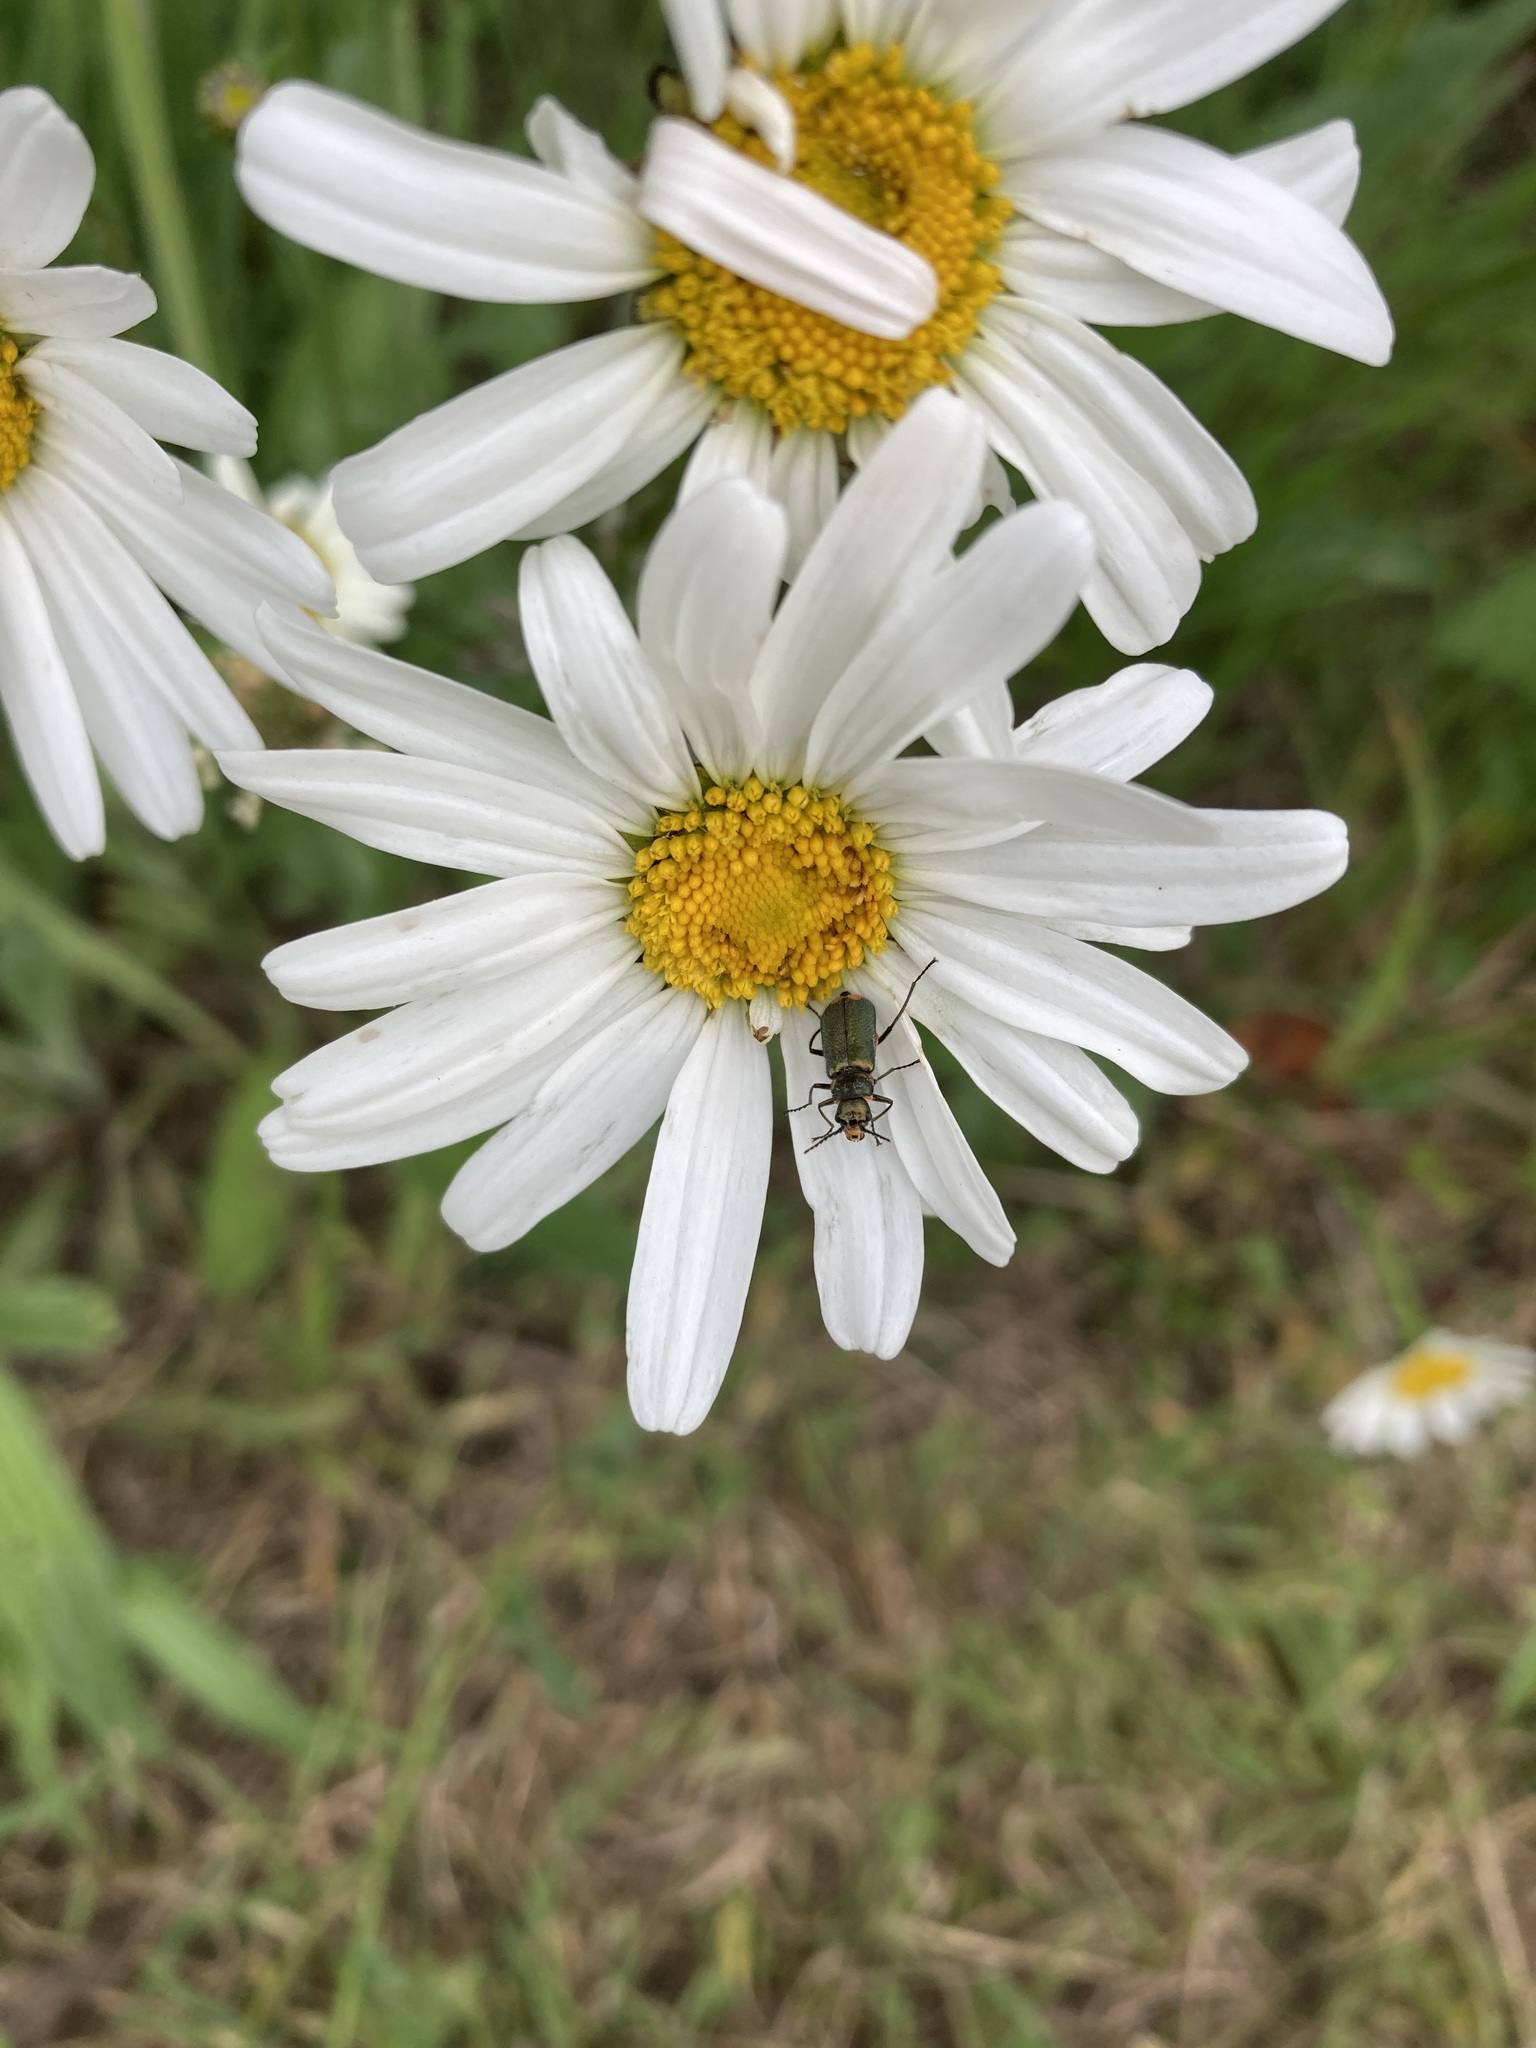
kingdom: Animalia
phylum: Arthropoda
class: Insecta
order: Coleoptera
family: Melyridae
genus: Malachius
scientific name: Malachius bipustulatus
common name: Malachite beetle
